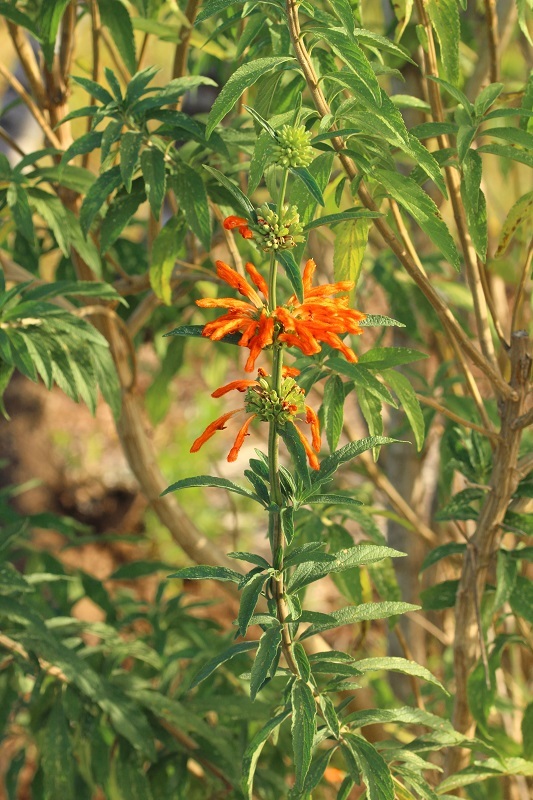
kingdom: Plantae
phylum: Tracheophyta
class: Magnoliopsida
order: Lamiales
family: Lamiaceae
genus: Leonotis
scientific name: Leonotis leonurus
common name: Lion's ear
